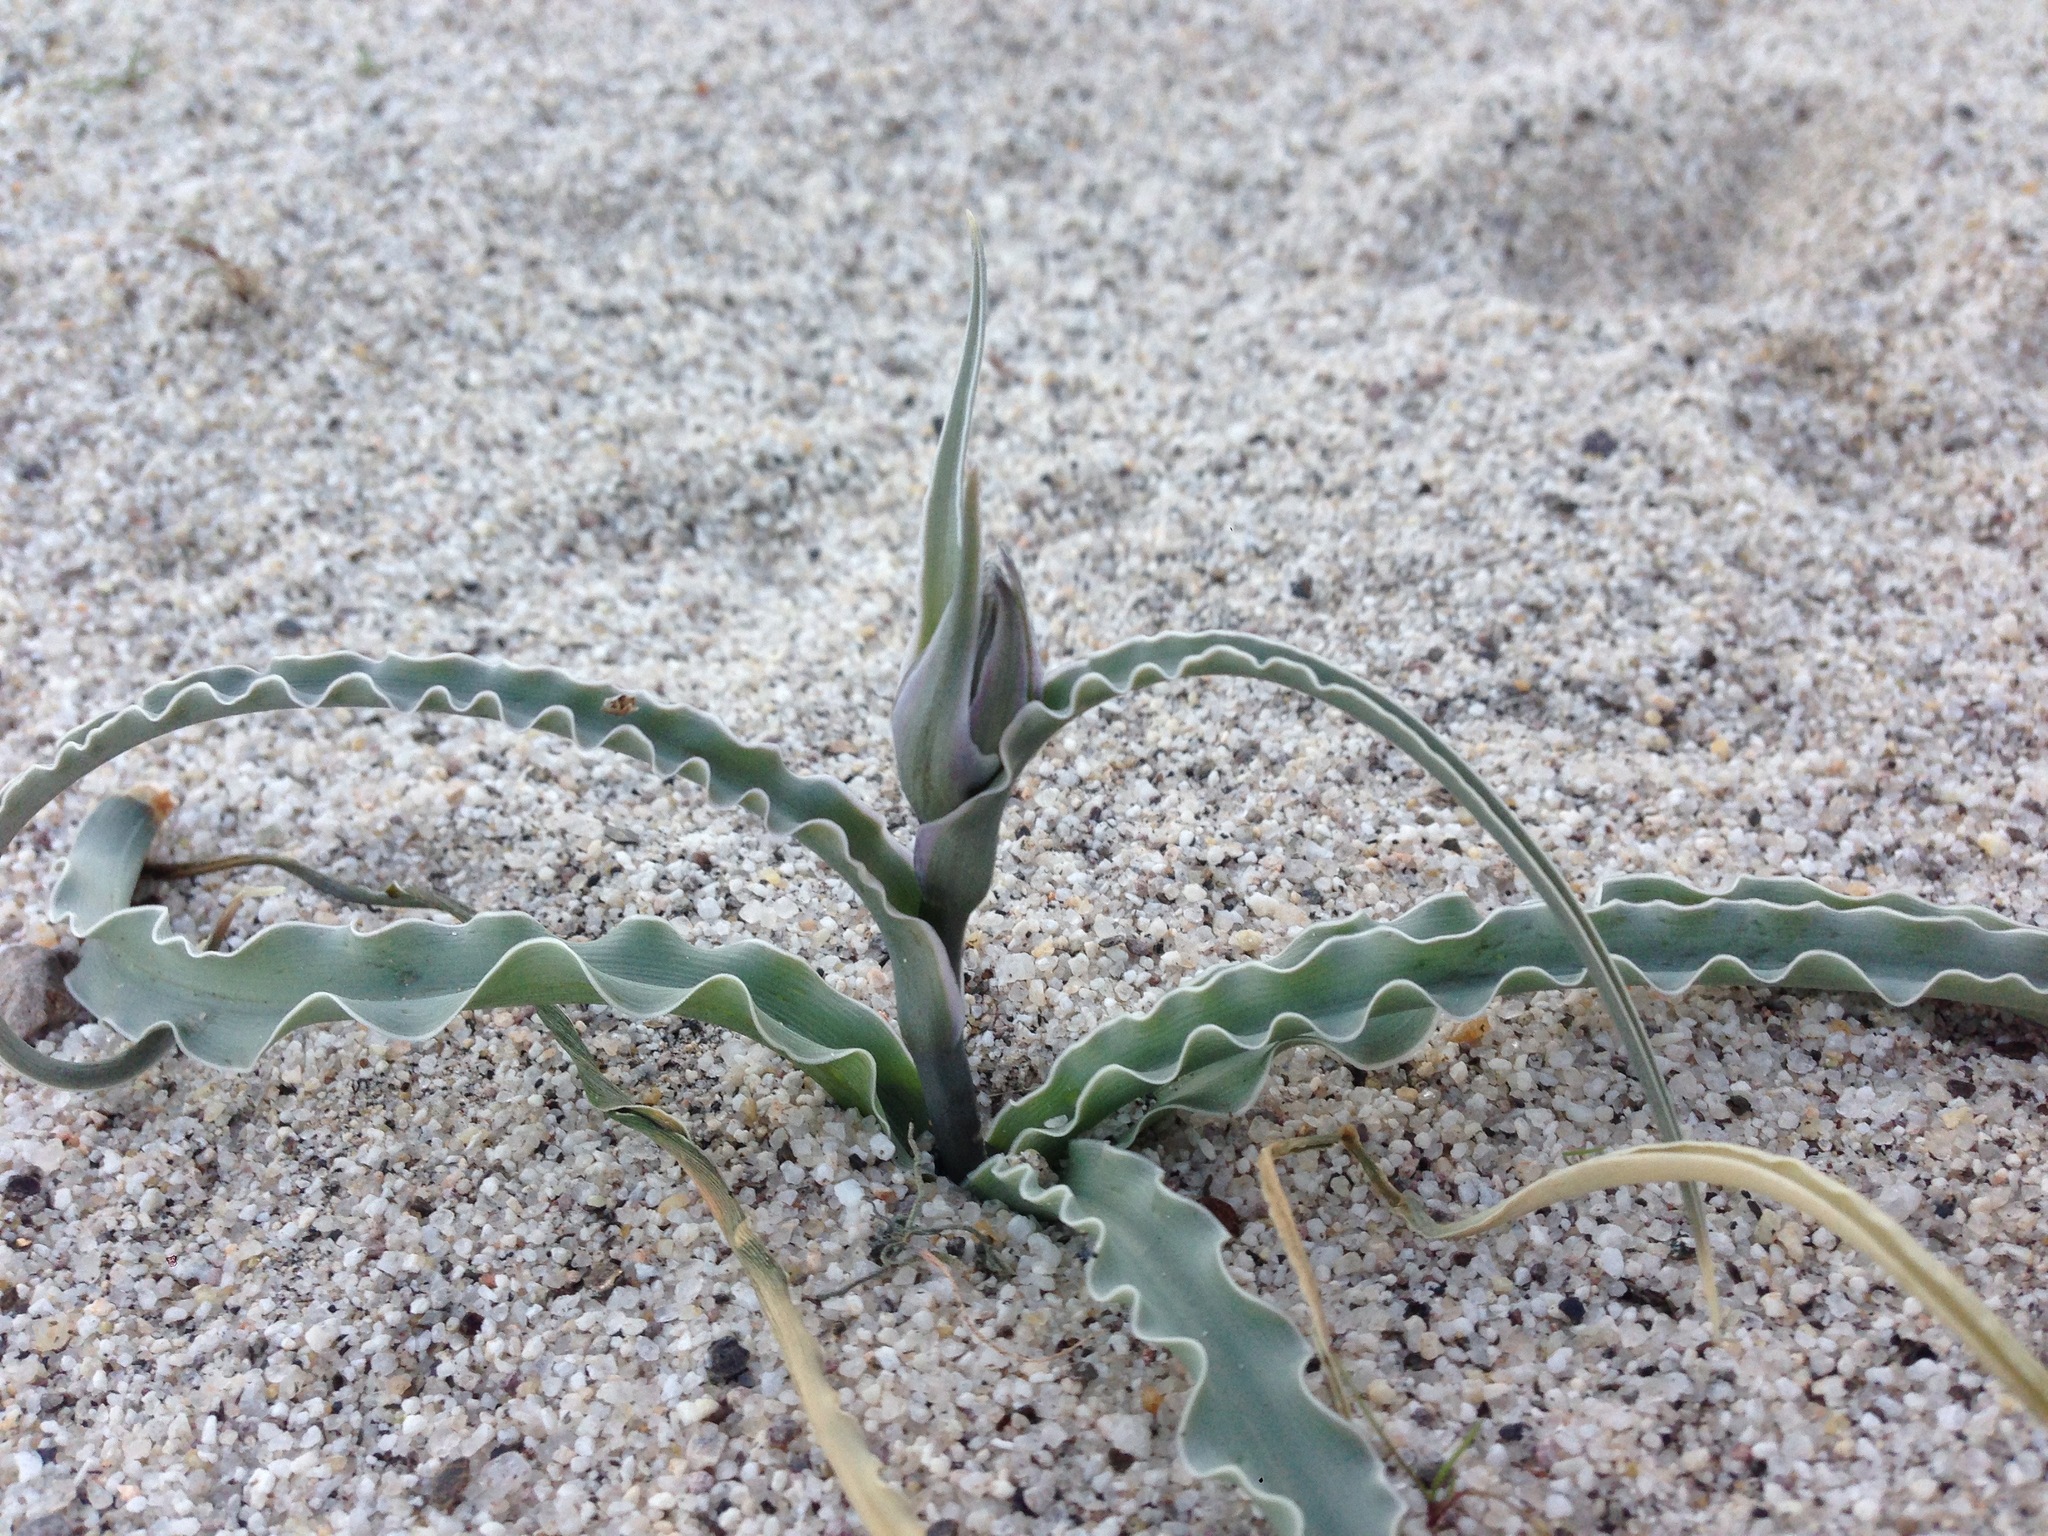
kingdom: Plantae
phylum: Tracheophyta
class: Liliopsida
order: Asparagales
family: Asparagaceae
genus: Hesperocallis
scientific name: Hesperocallis undulata
